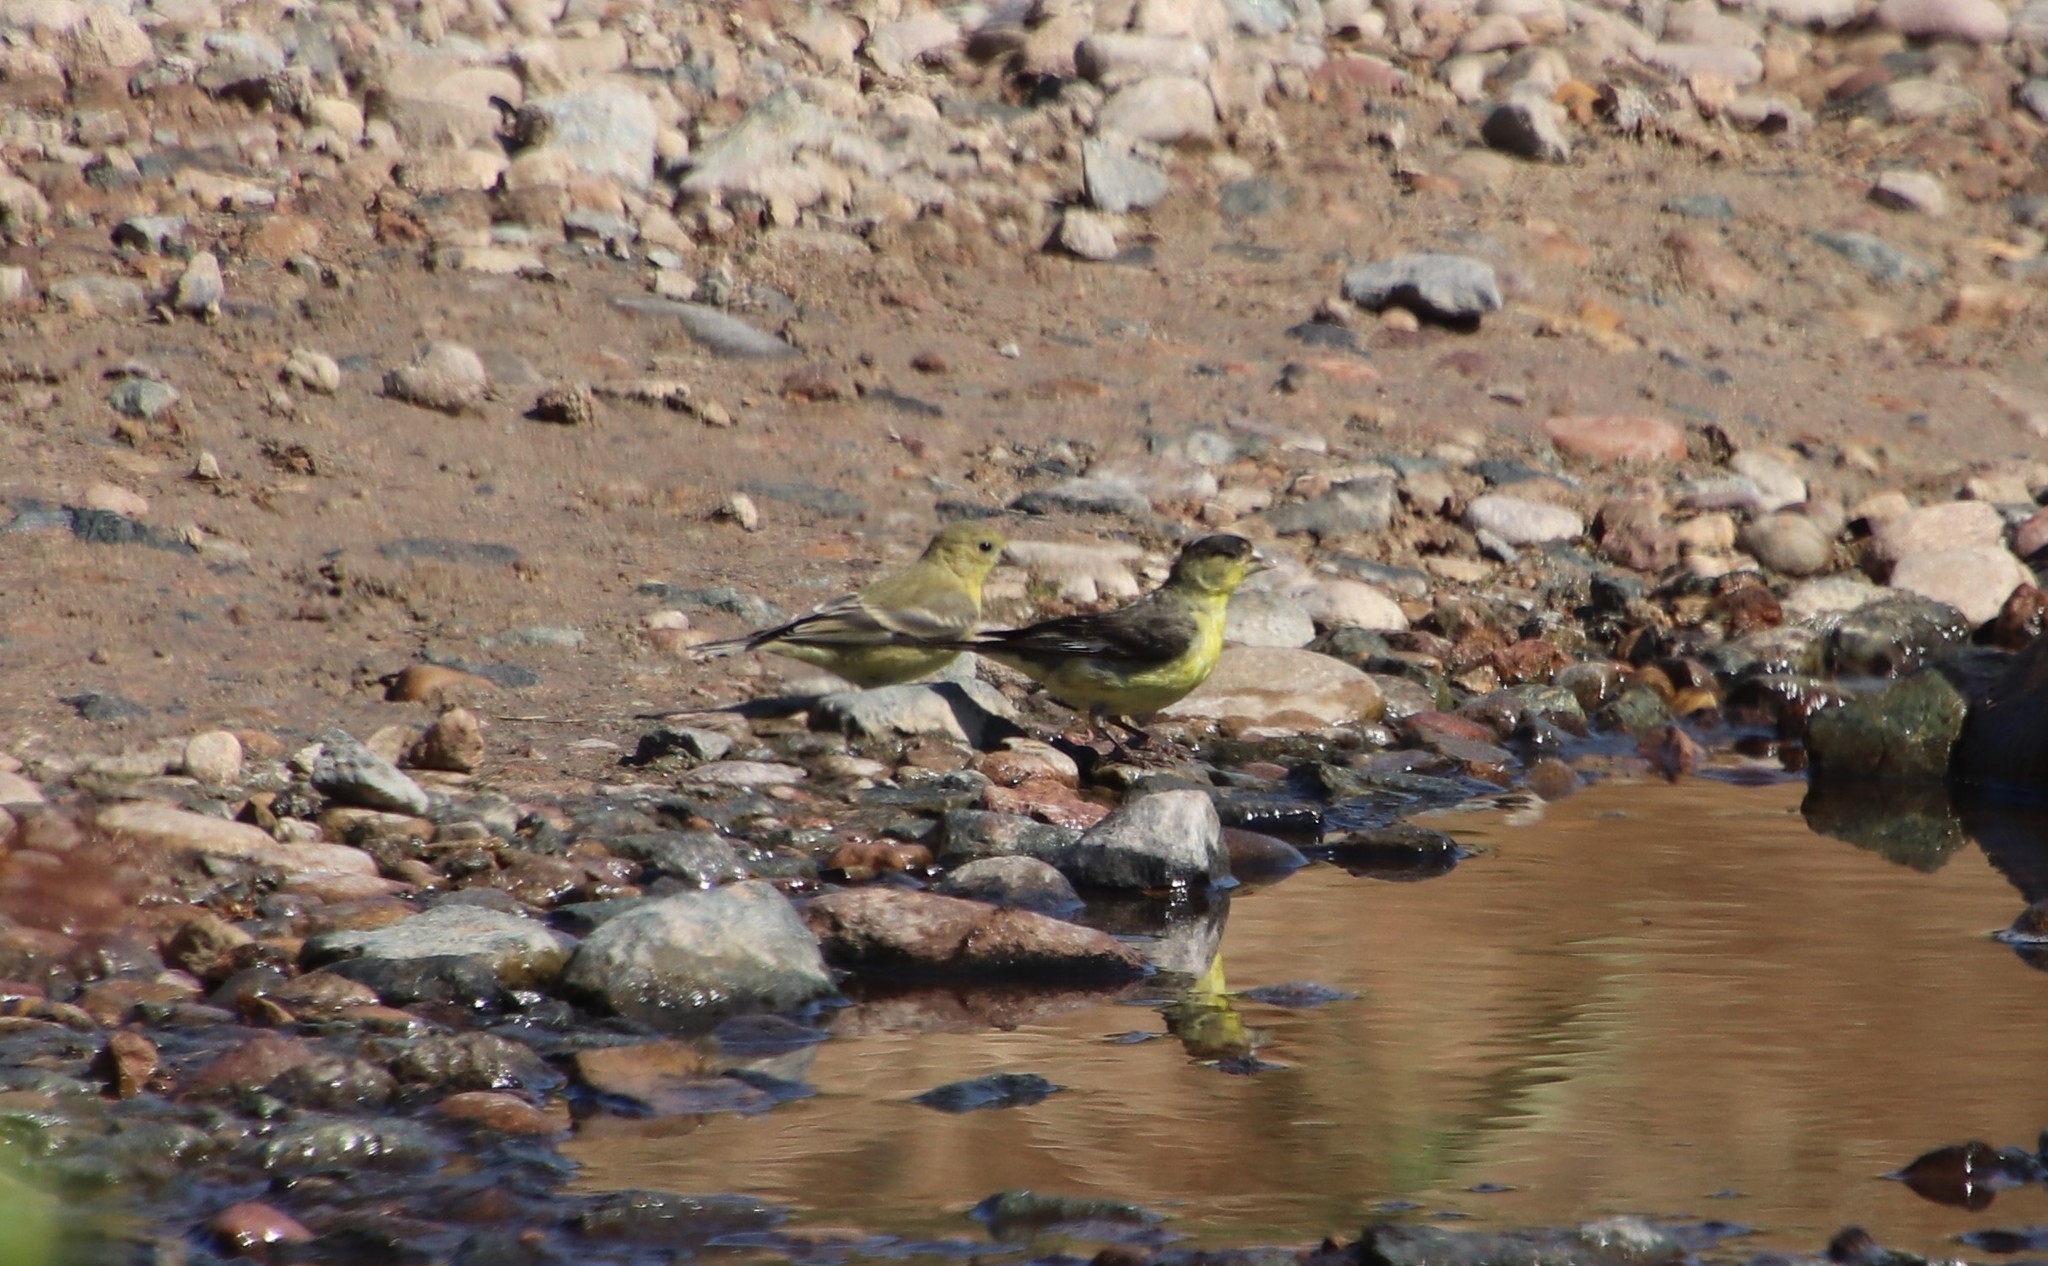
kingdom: Animalia
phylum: Chordata
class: Aves
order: Passeriformes
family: Fringillidae
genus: Spinus
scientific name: Spinus psaltria
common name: Lesser goldfinch
